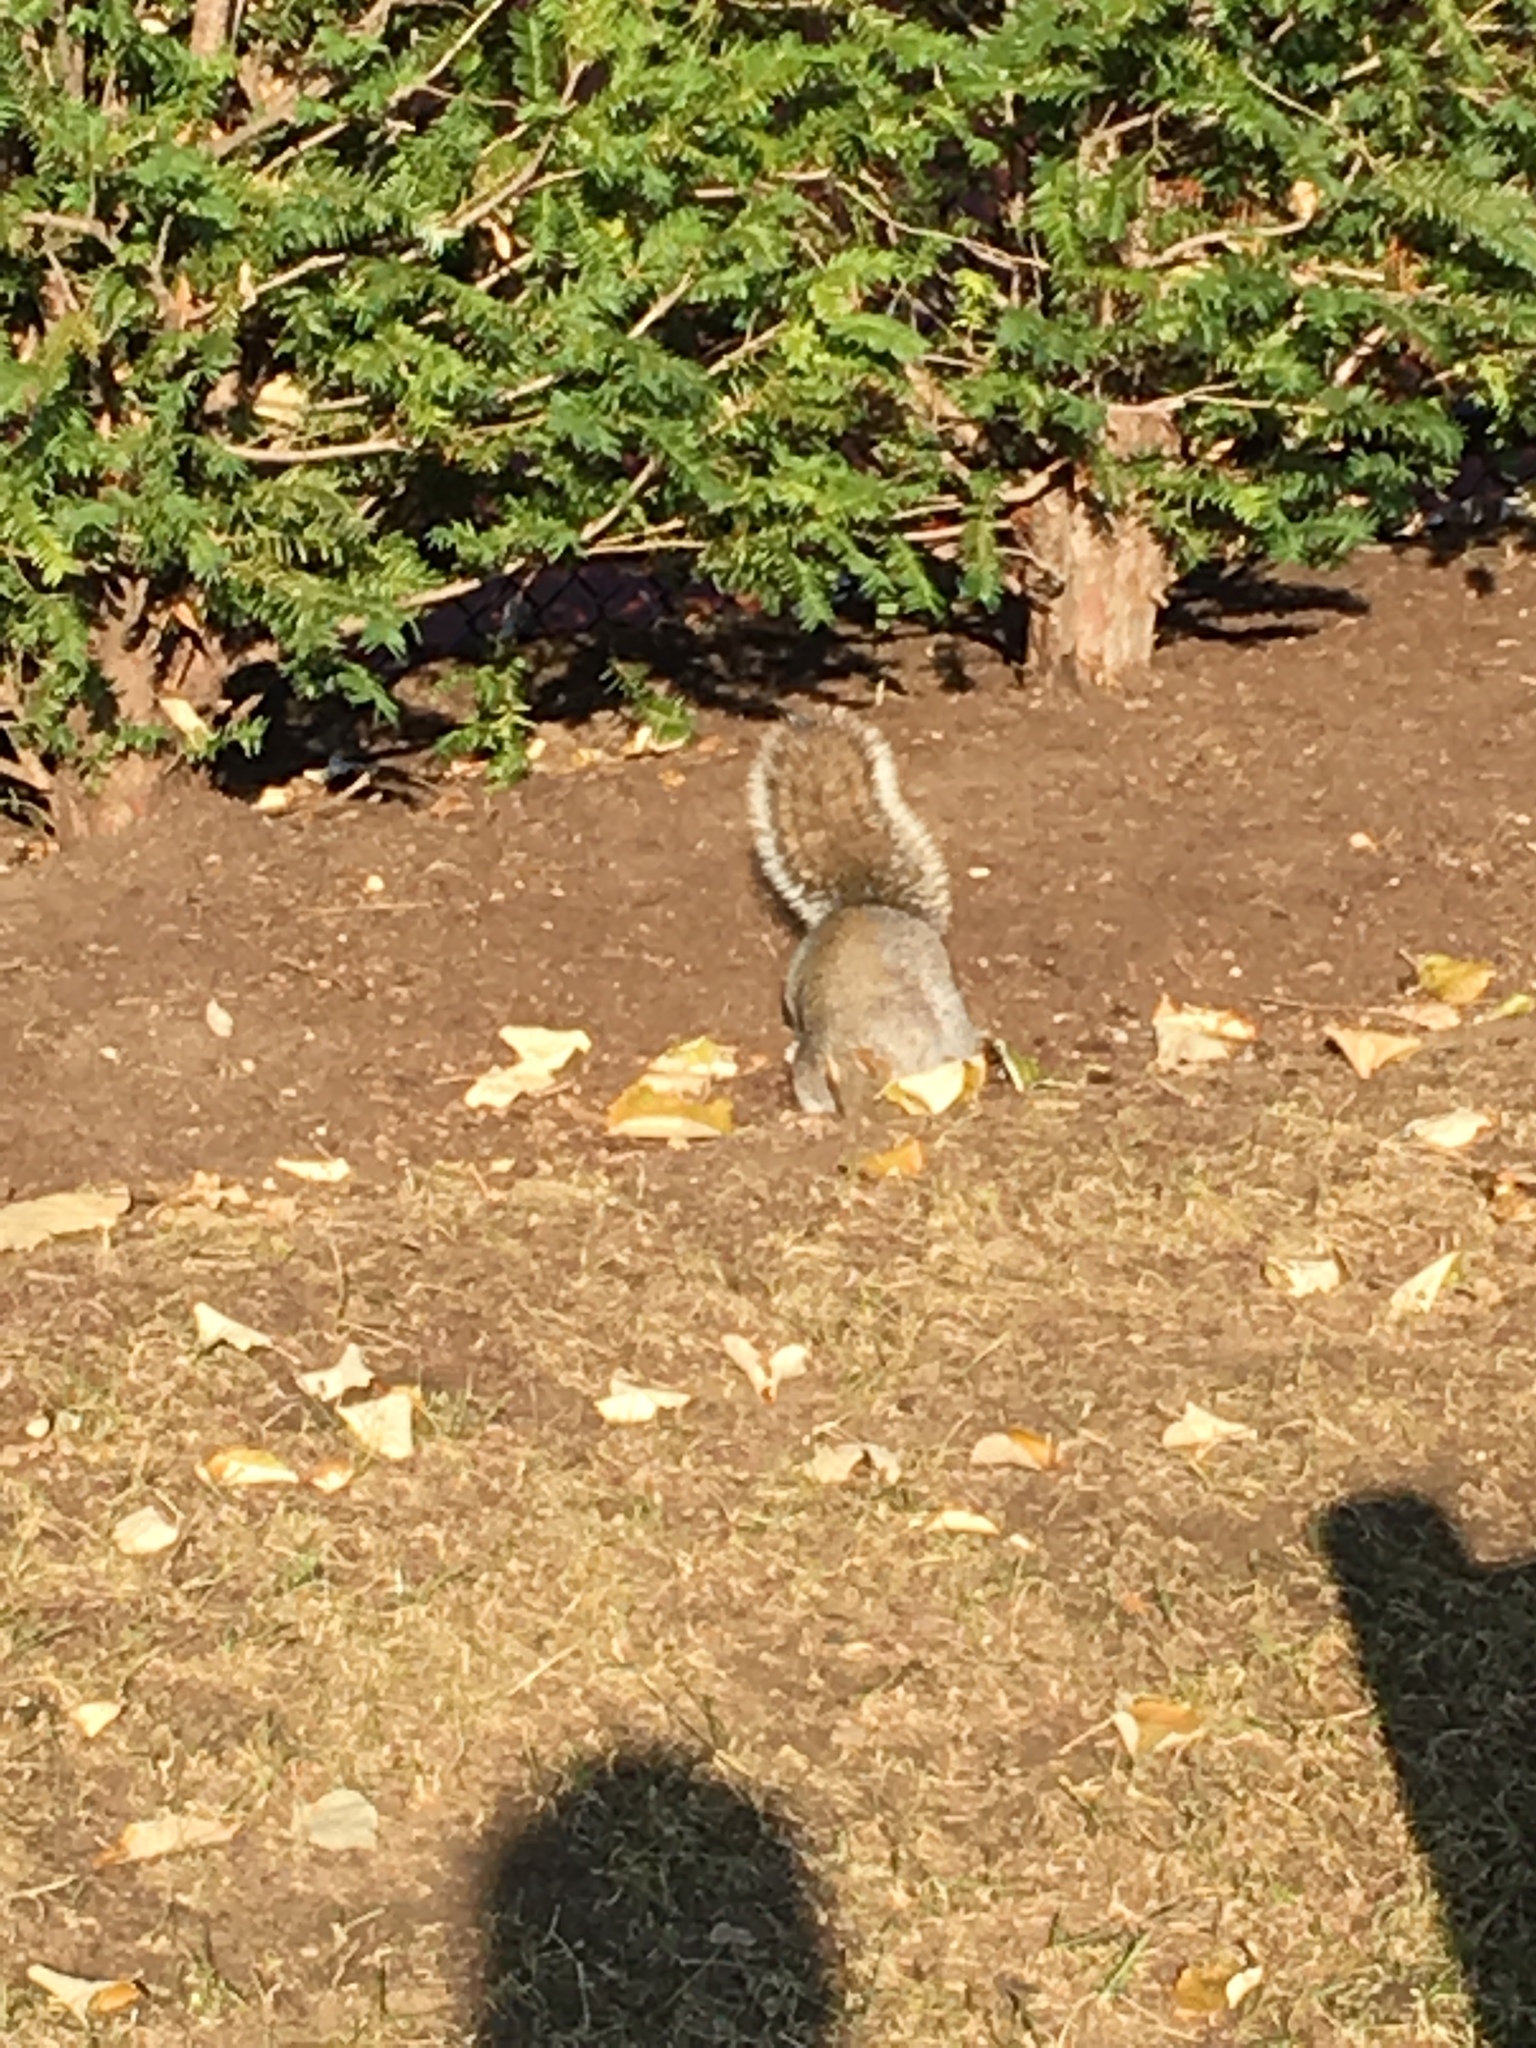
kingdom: Animalia
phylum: Chordata
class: Mammalia
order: Rodentia
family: Sciuridae
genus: Sciurus
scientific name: Sciurus carolinensis
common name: Eastern gray squirrel
